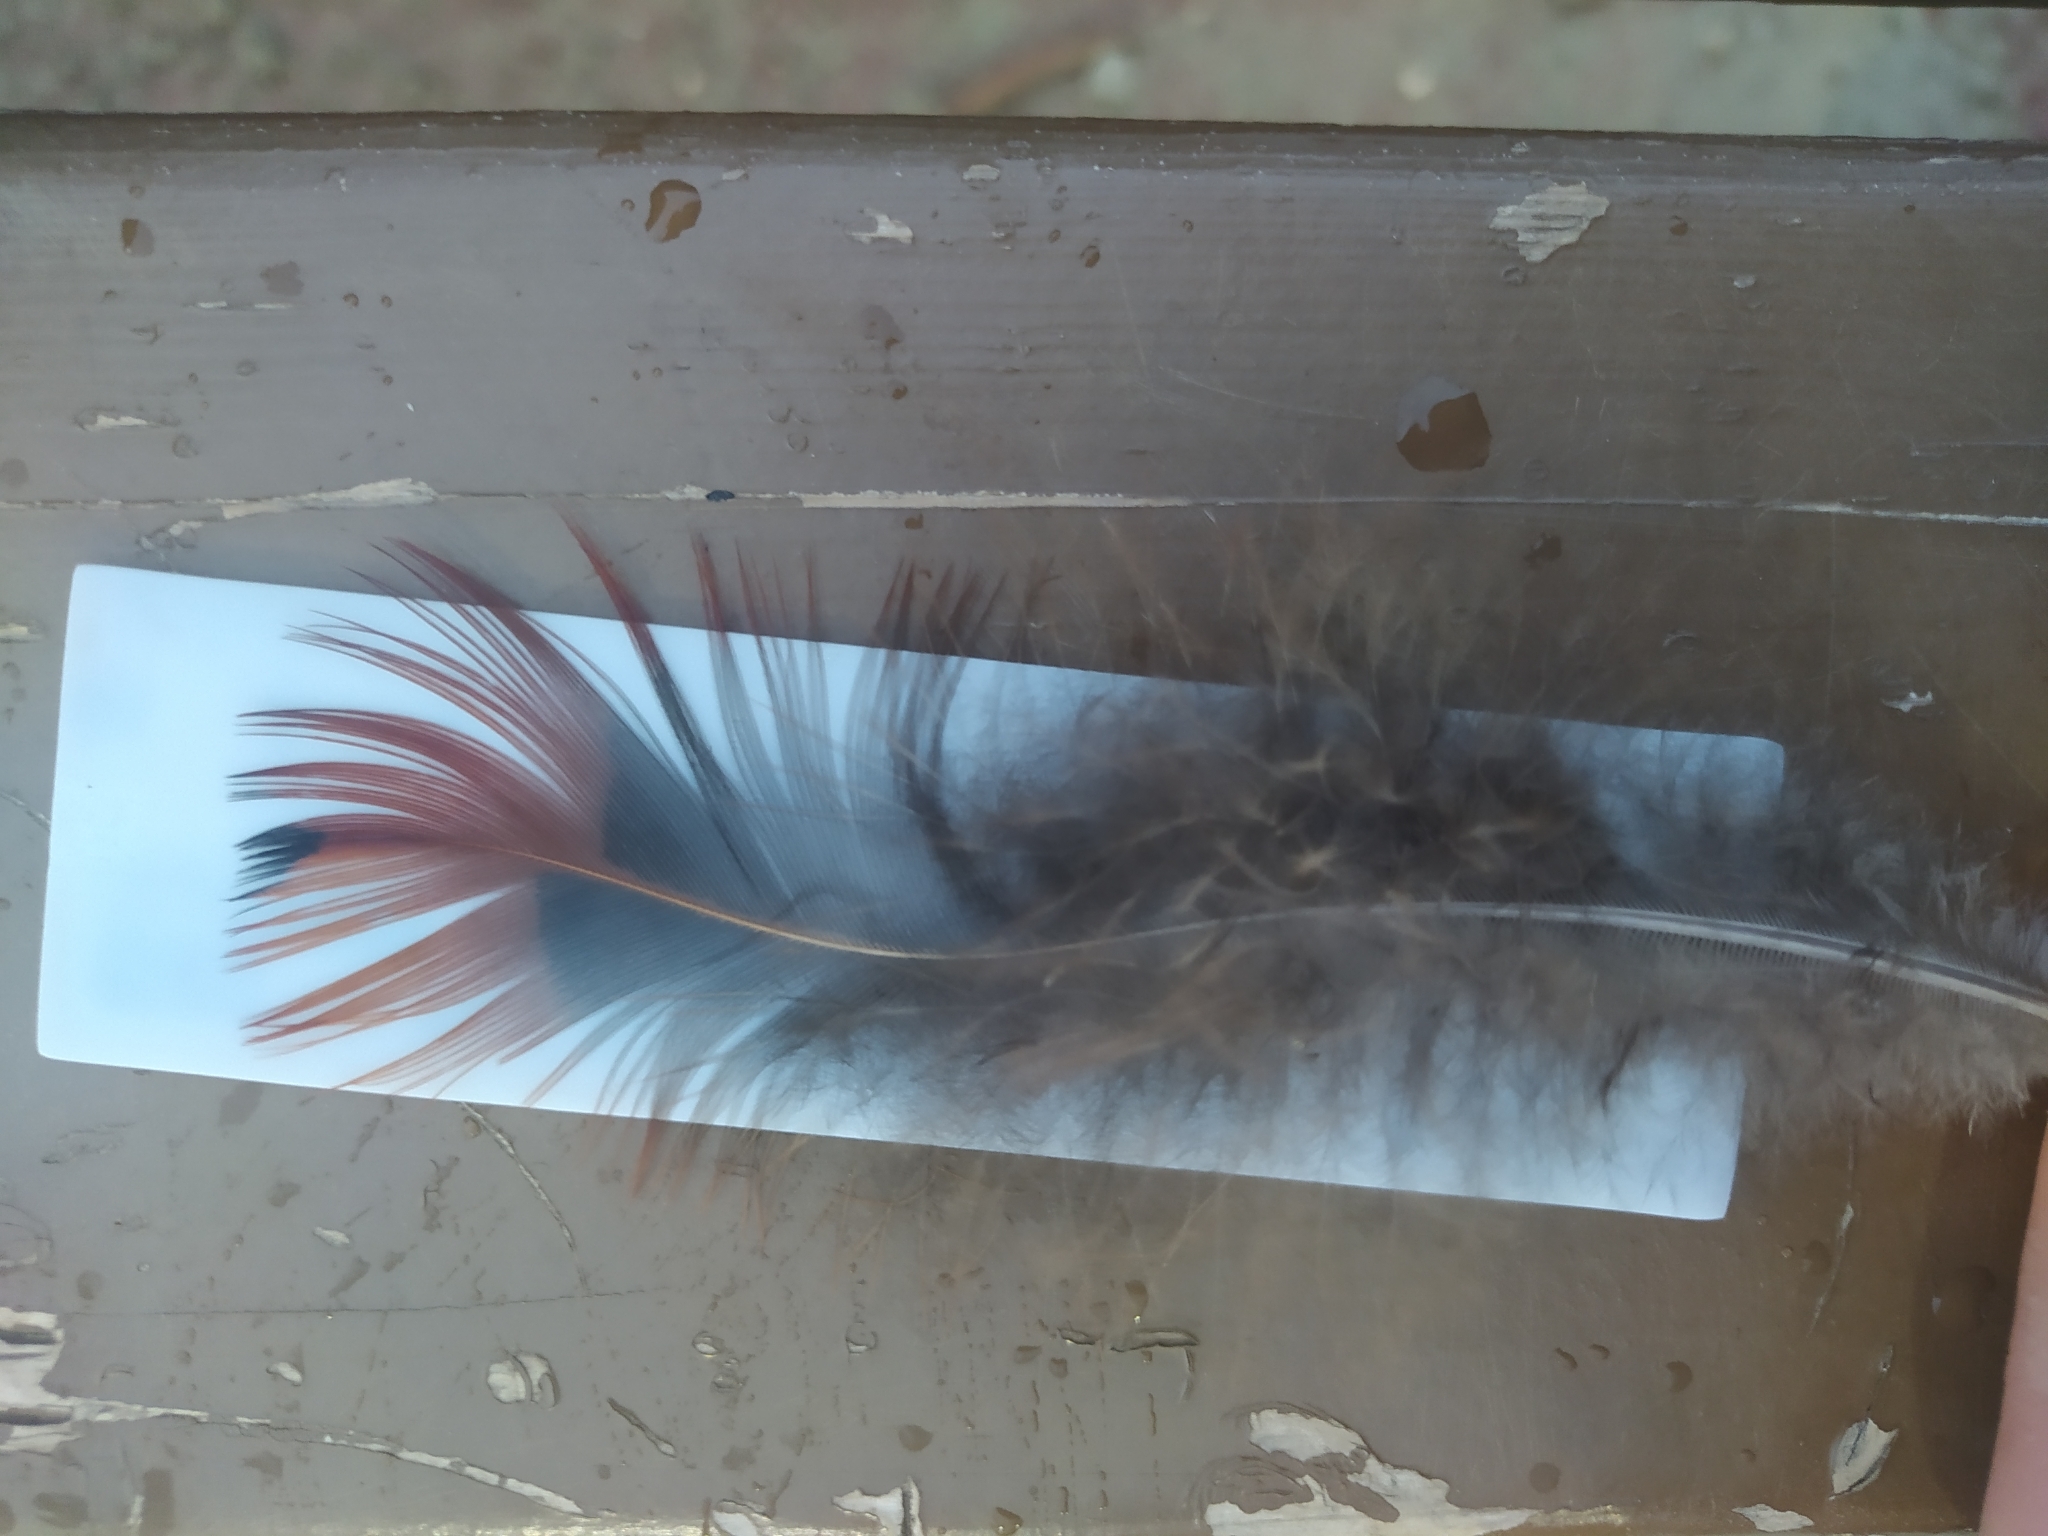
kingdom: Animalia
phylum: Chordata
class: Aves
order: Galliformes
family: Phasianidae
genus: Phasianus
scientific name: Phasianus colchicus
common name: Common pheasant
